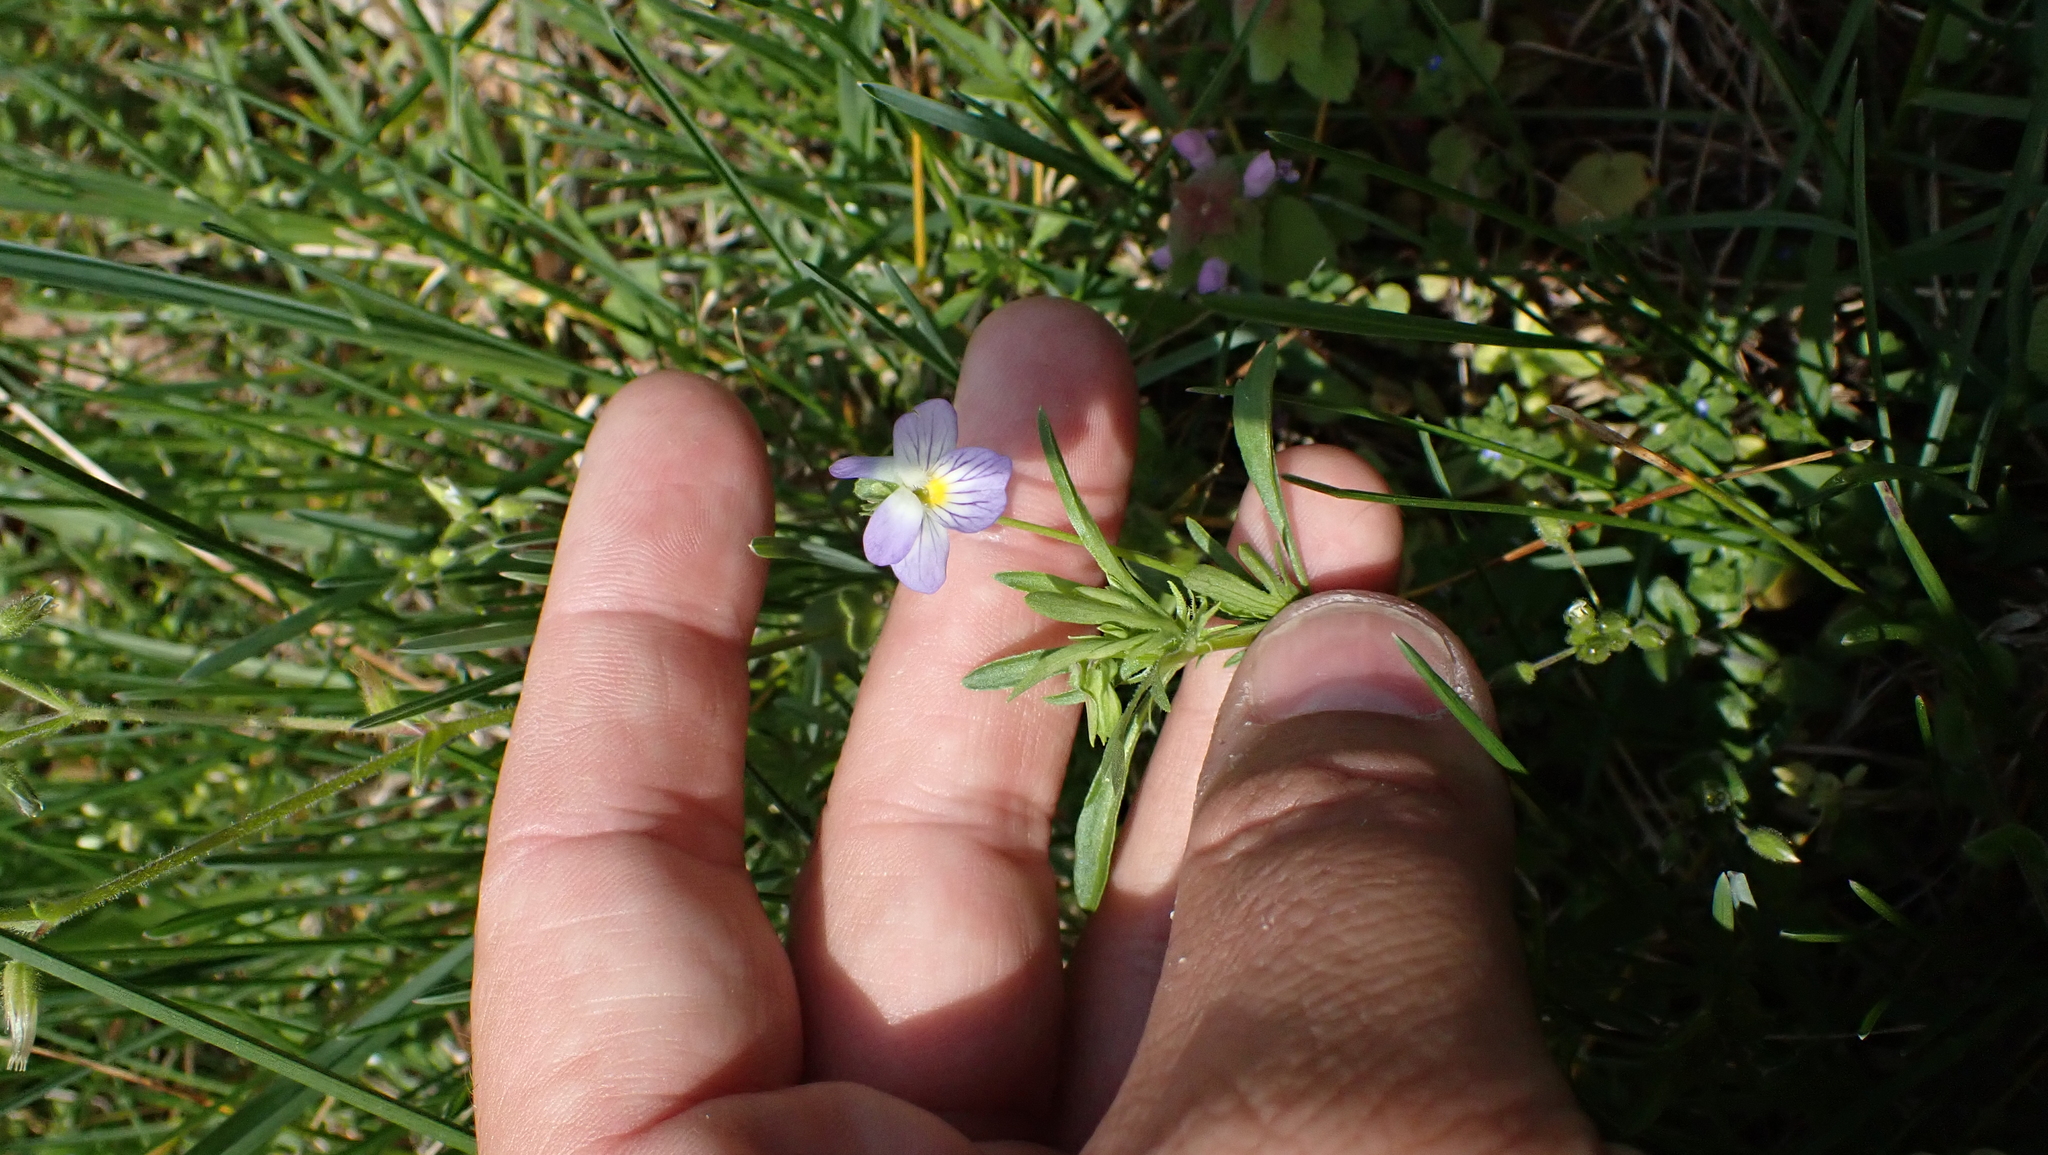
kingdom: Plantae
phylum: Tracheophyta
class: Magnoliopsida
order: Malpighiales
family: Violaceae
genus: Viola
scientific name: Viola rafinesquei
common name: American field pansy
